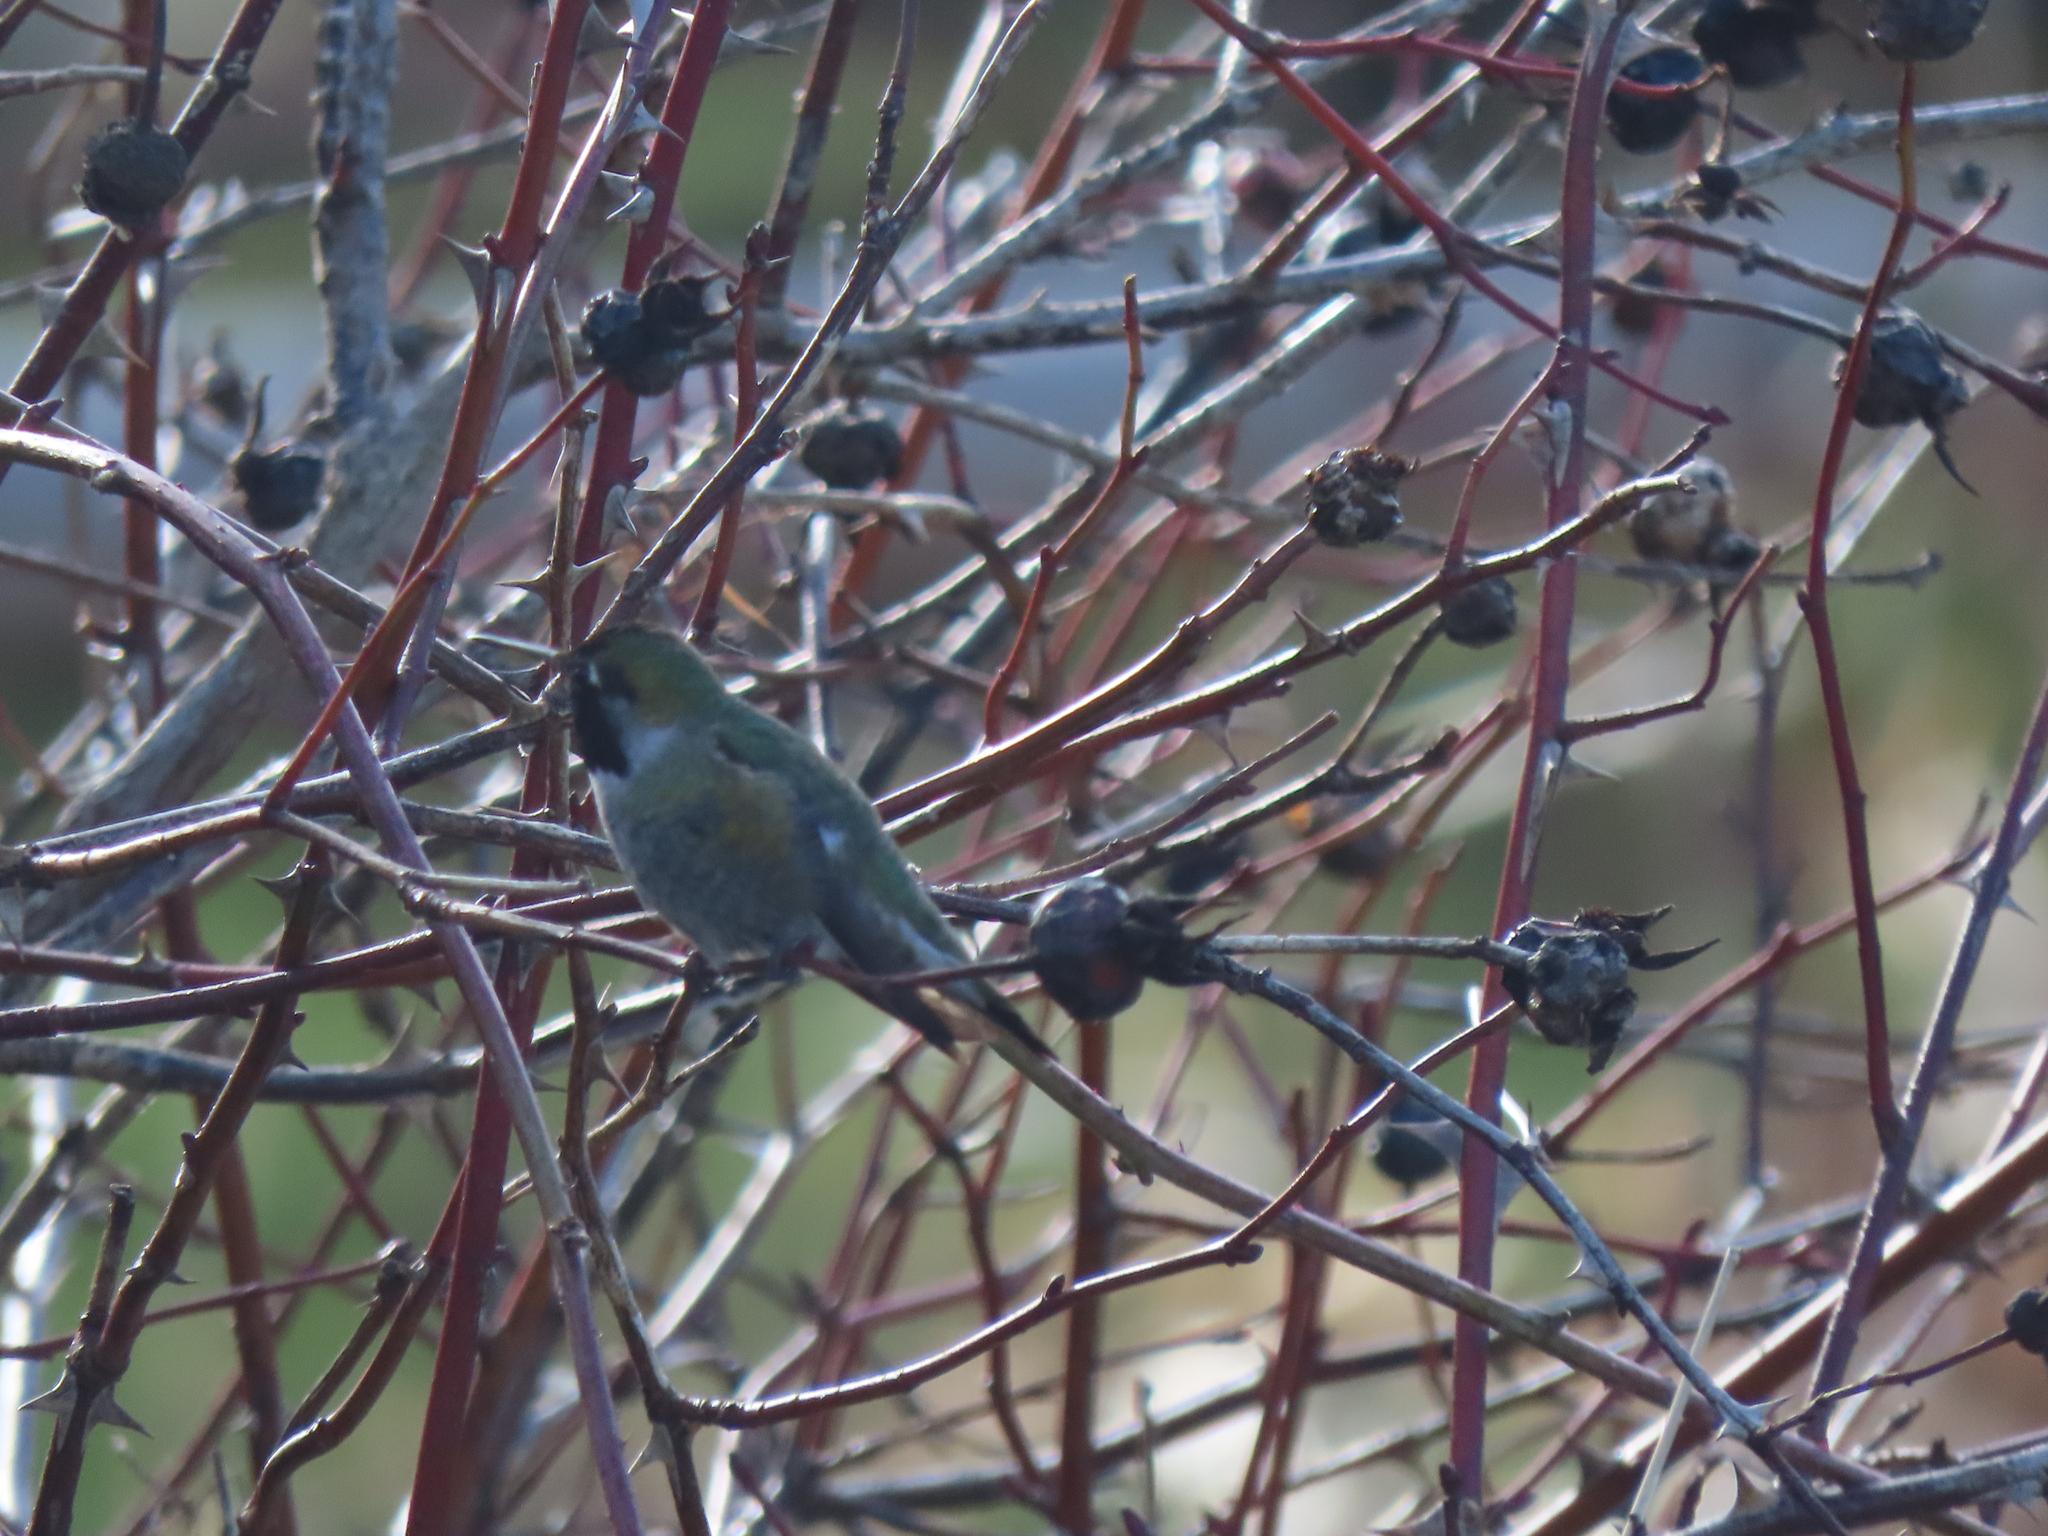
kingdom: Animalia
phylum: Chordata
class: Aves
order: Apodiformes
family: Trochilidae
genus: Calypte
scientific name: Calypte anna
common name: Anna's hummingbird
